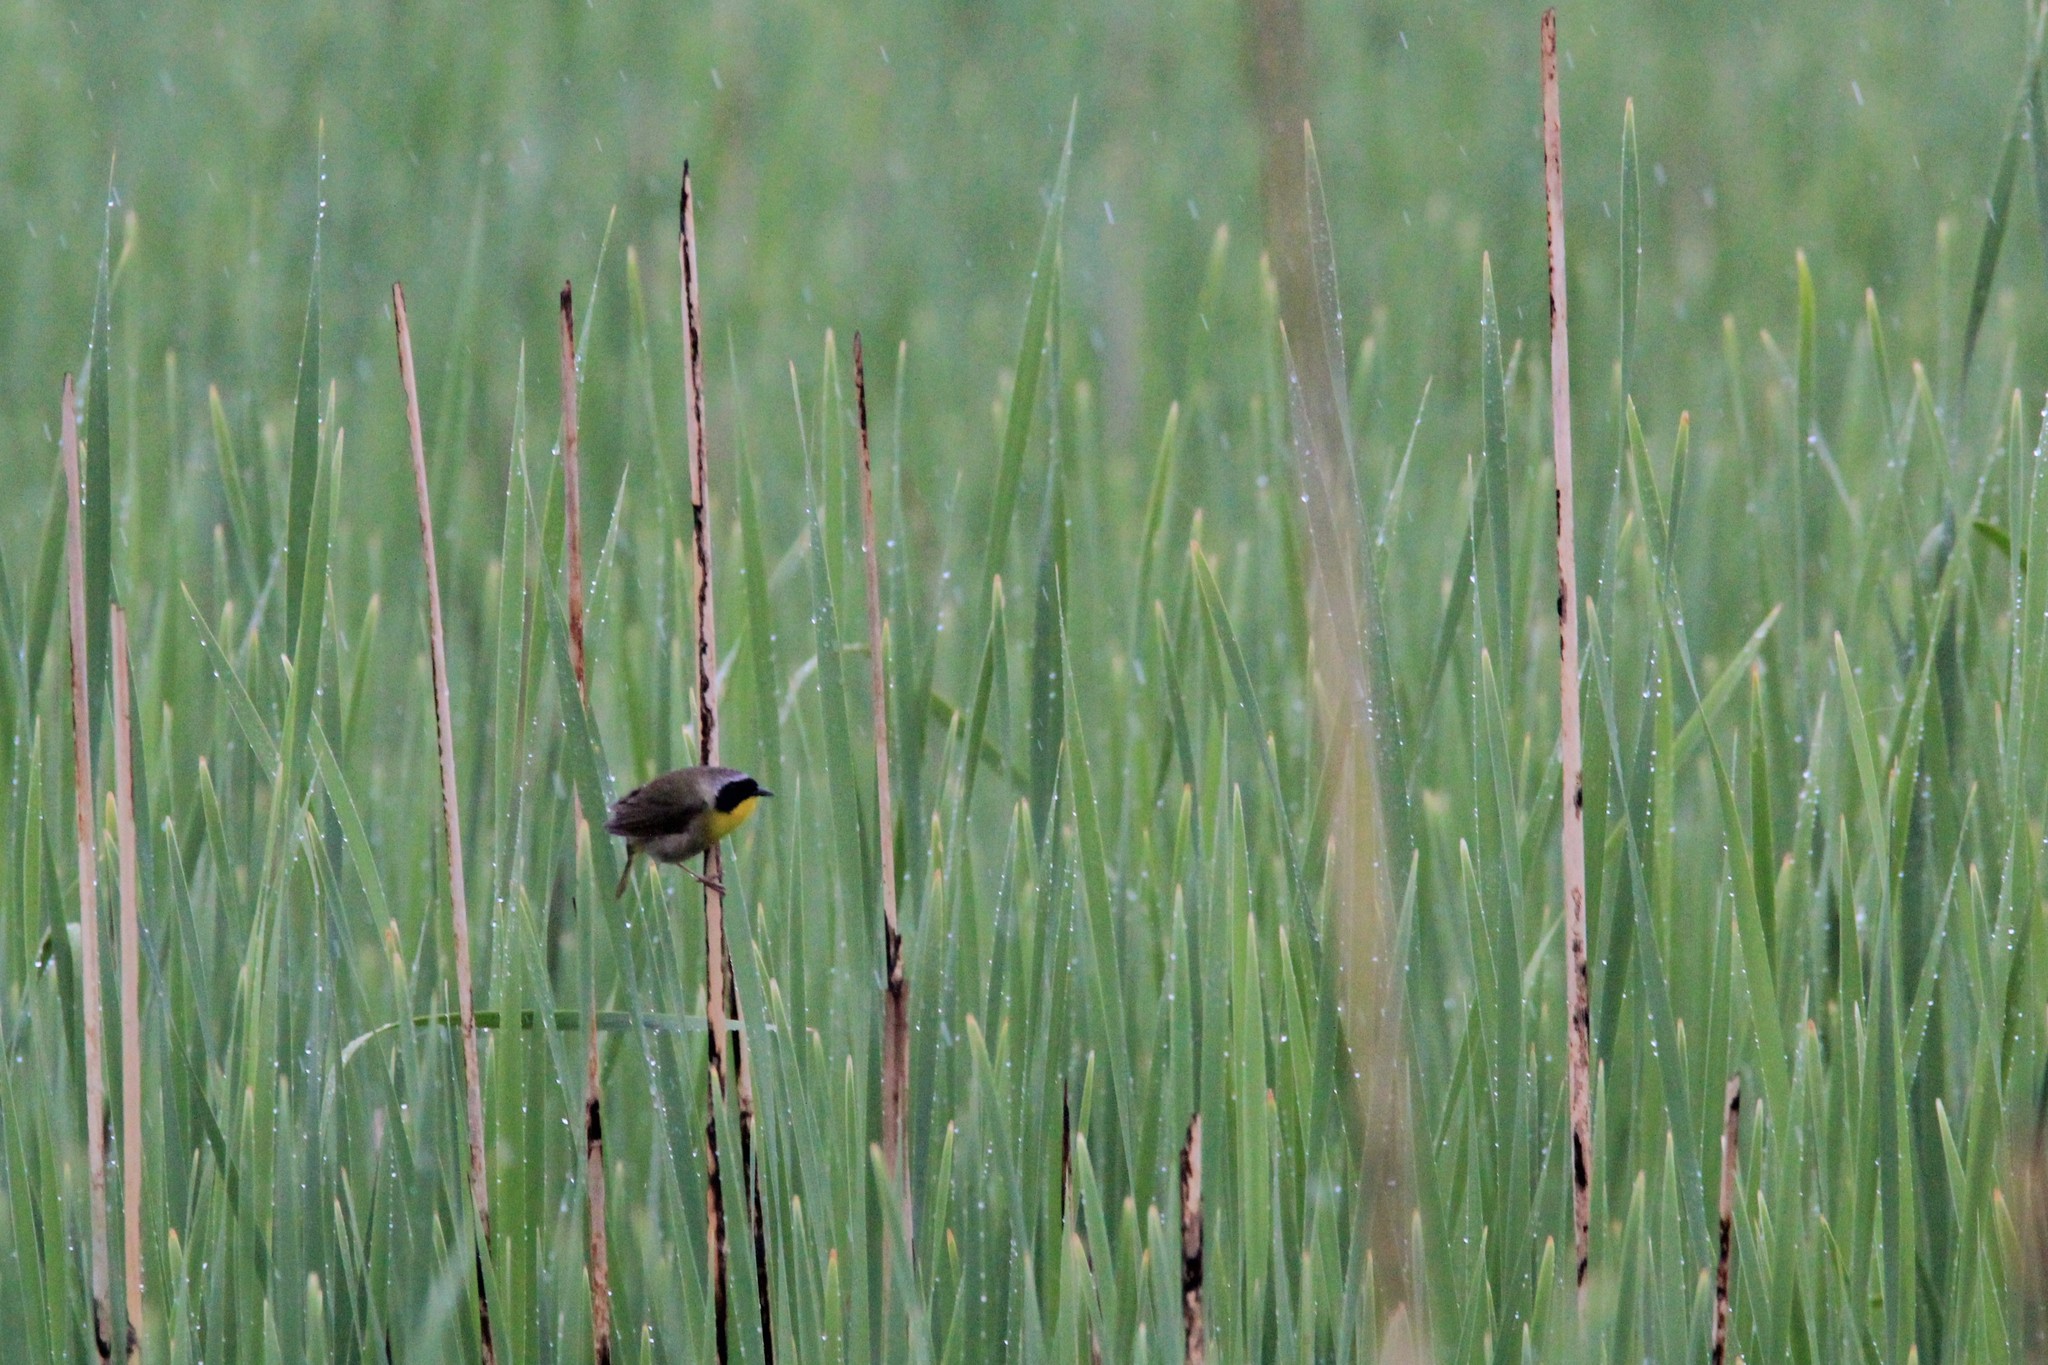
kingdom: Animalia
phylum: Chordata
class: Aves
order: Passeriformes
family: Parulidae
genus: Geothlypis
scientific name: Geothlypis trichas
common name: Common yellowthroat
